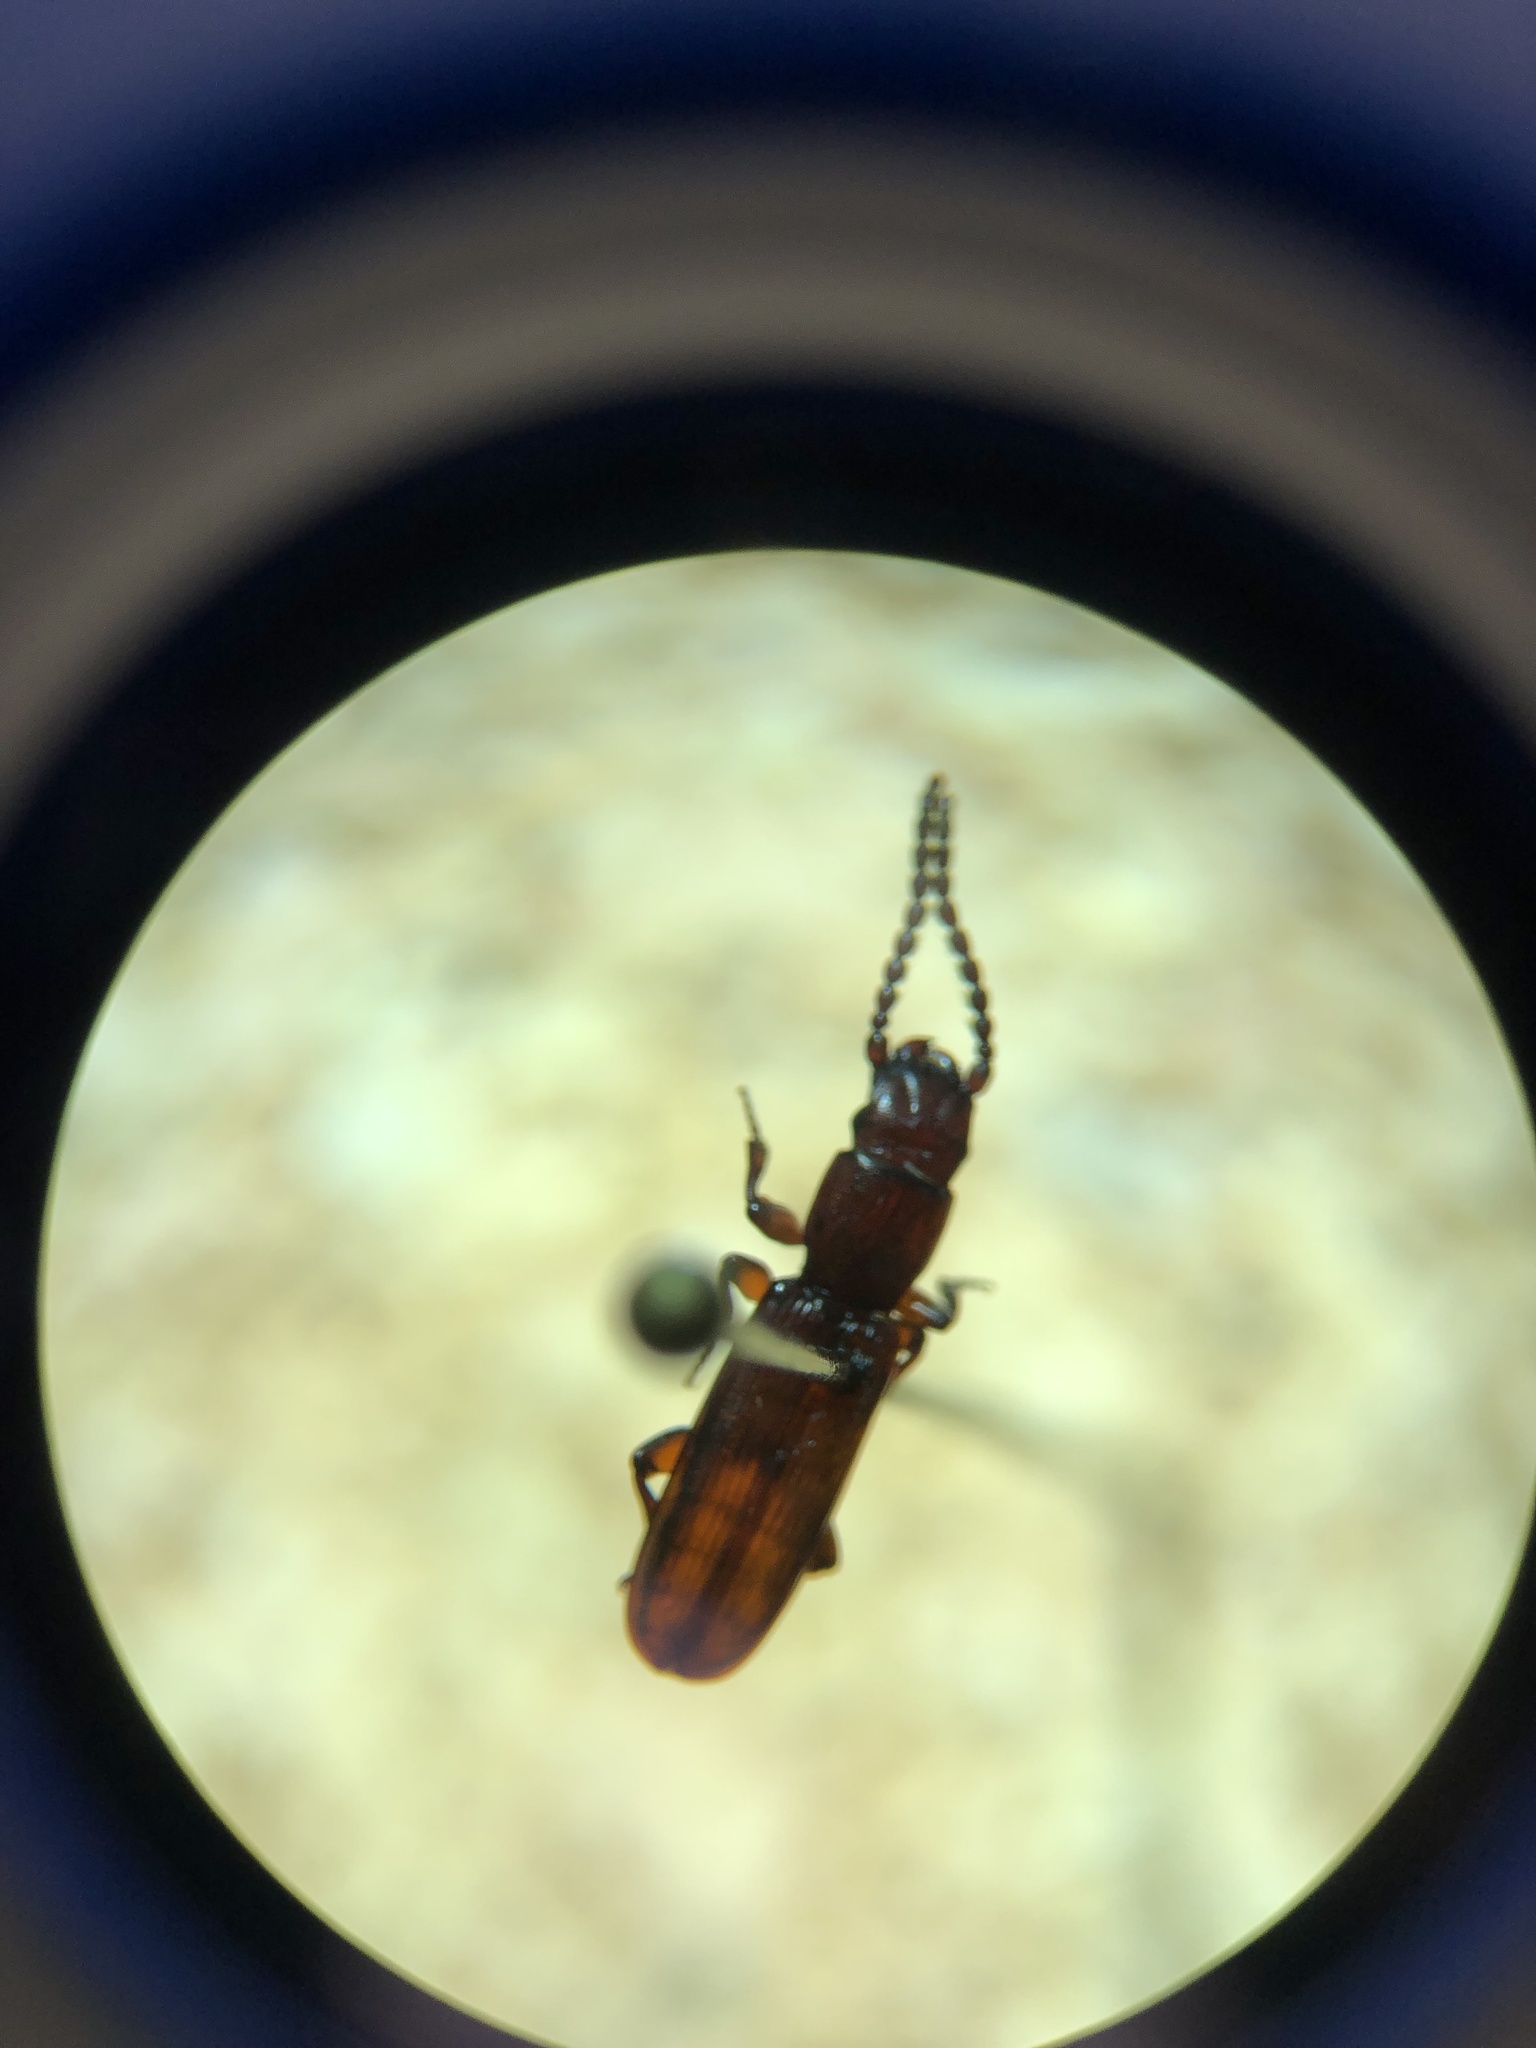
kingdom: Animalia
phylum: Arthropoda
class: Insecta
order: Coleoptera
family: Passandridae
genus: Catogenus
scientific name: Catogenus rufus
